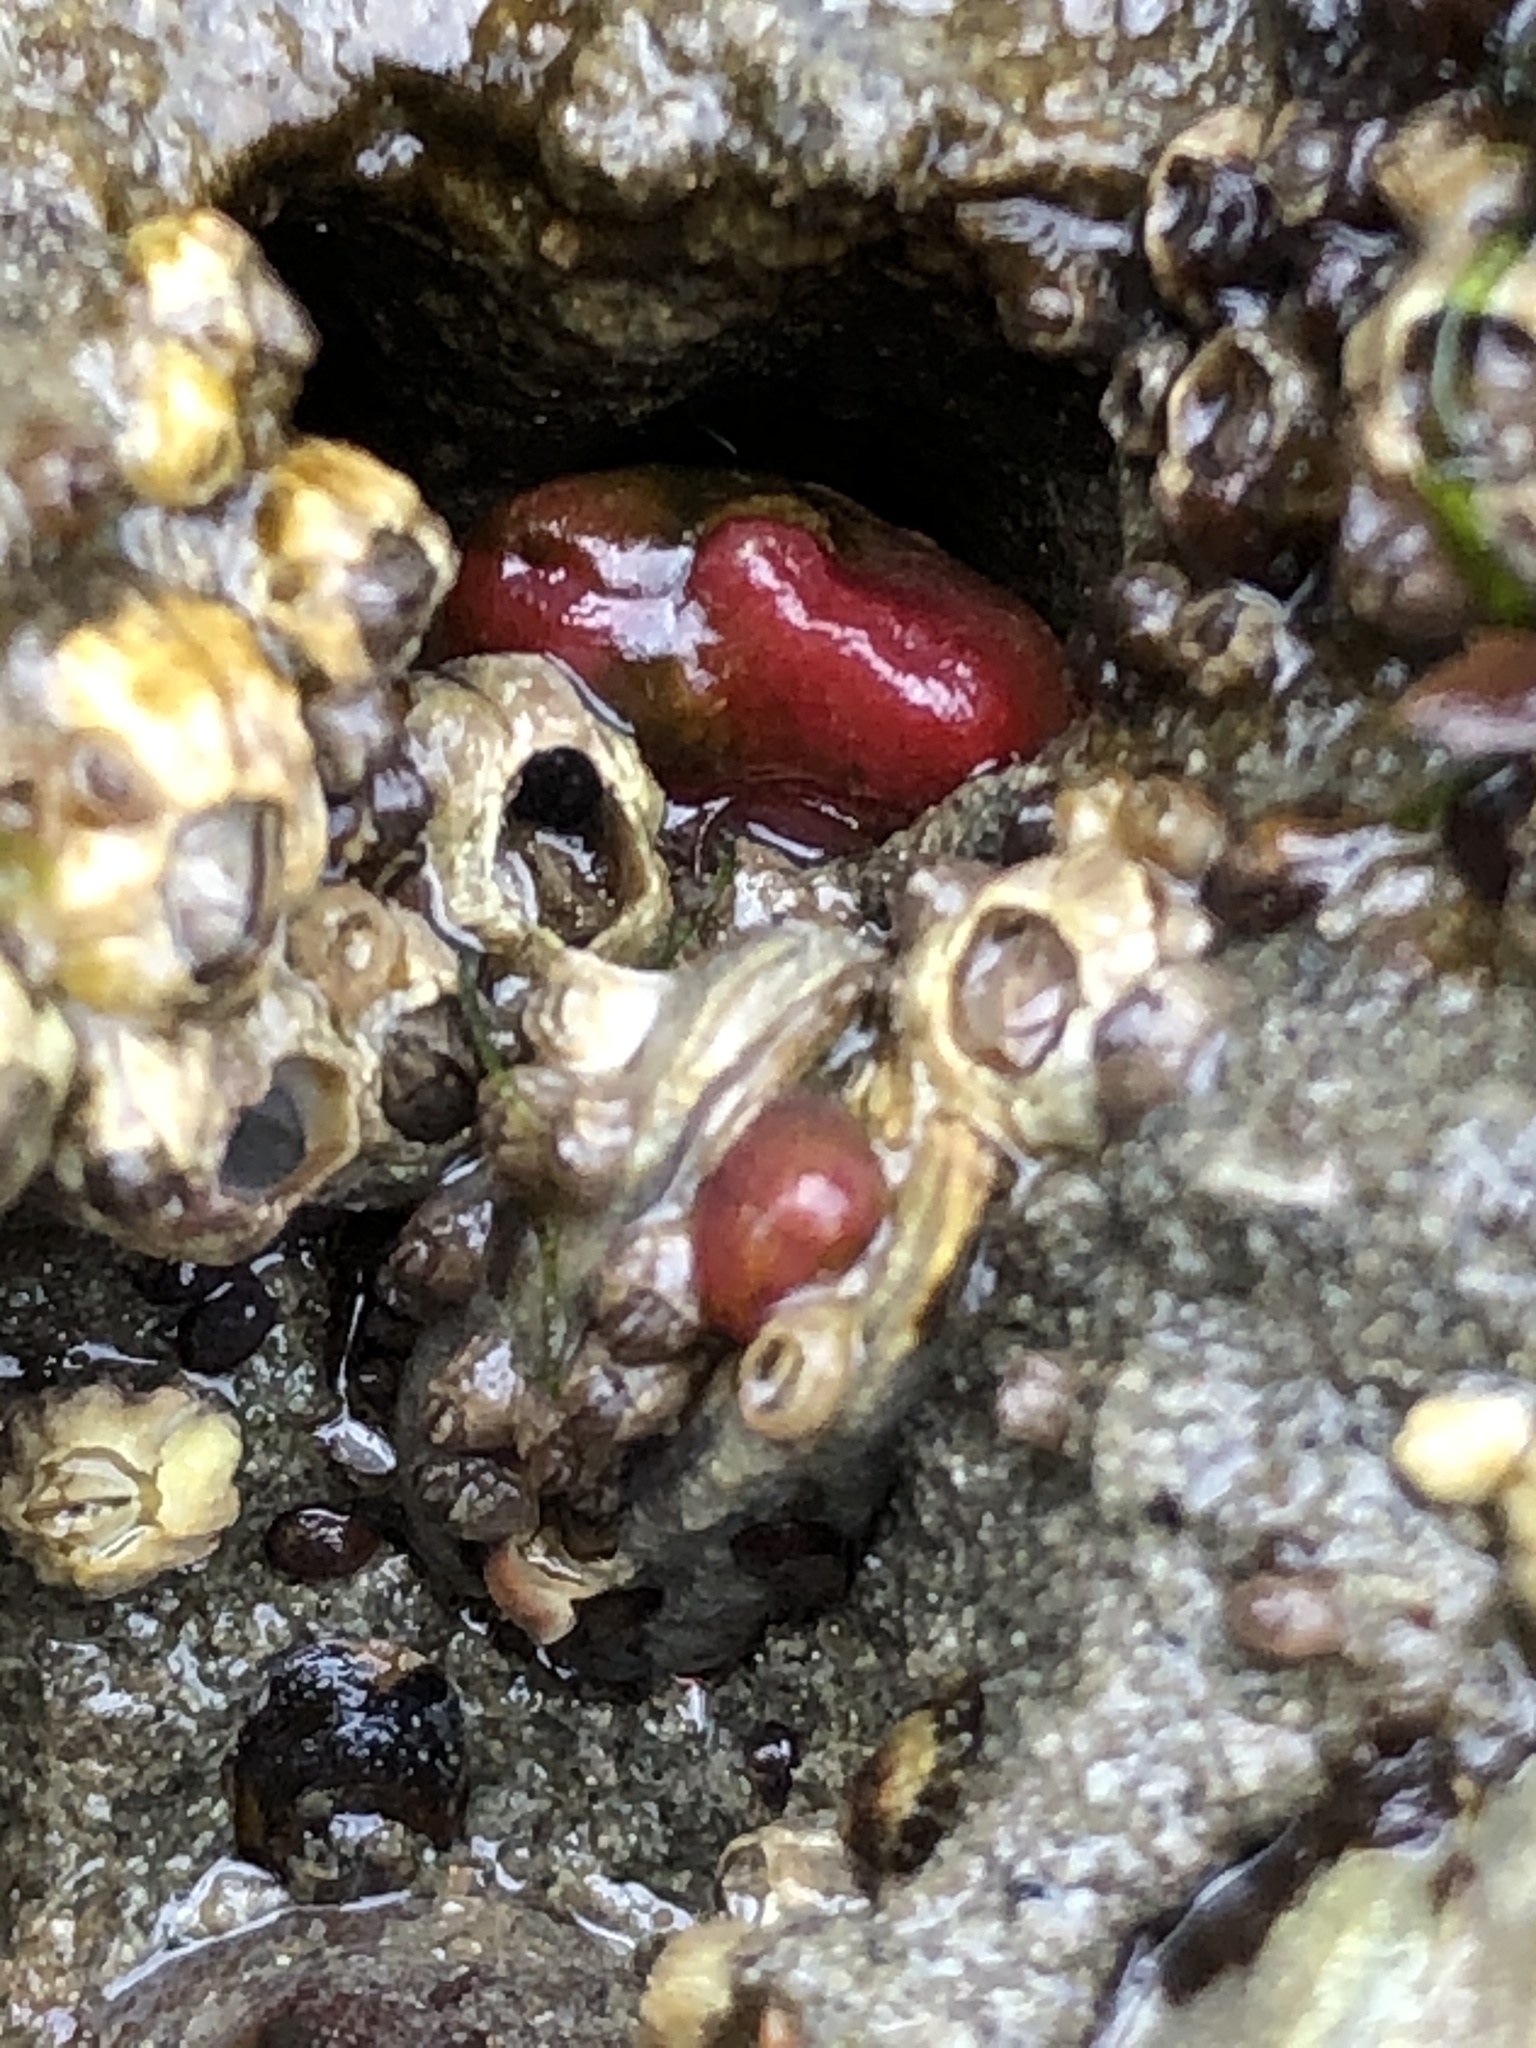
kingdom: Animalia
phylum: Mollusca
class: Bivalvia
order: Adapedonta
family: Hiatellidae
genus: Hiatella
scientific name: Hiatella arctica
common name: Arctic hiatella
